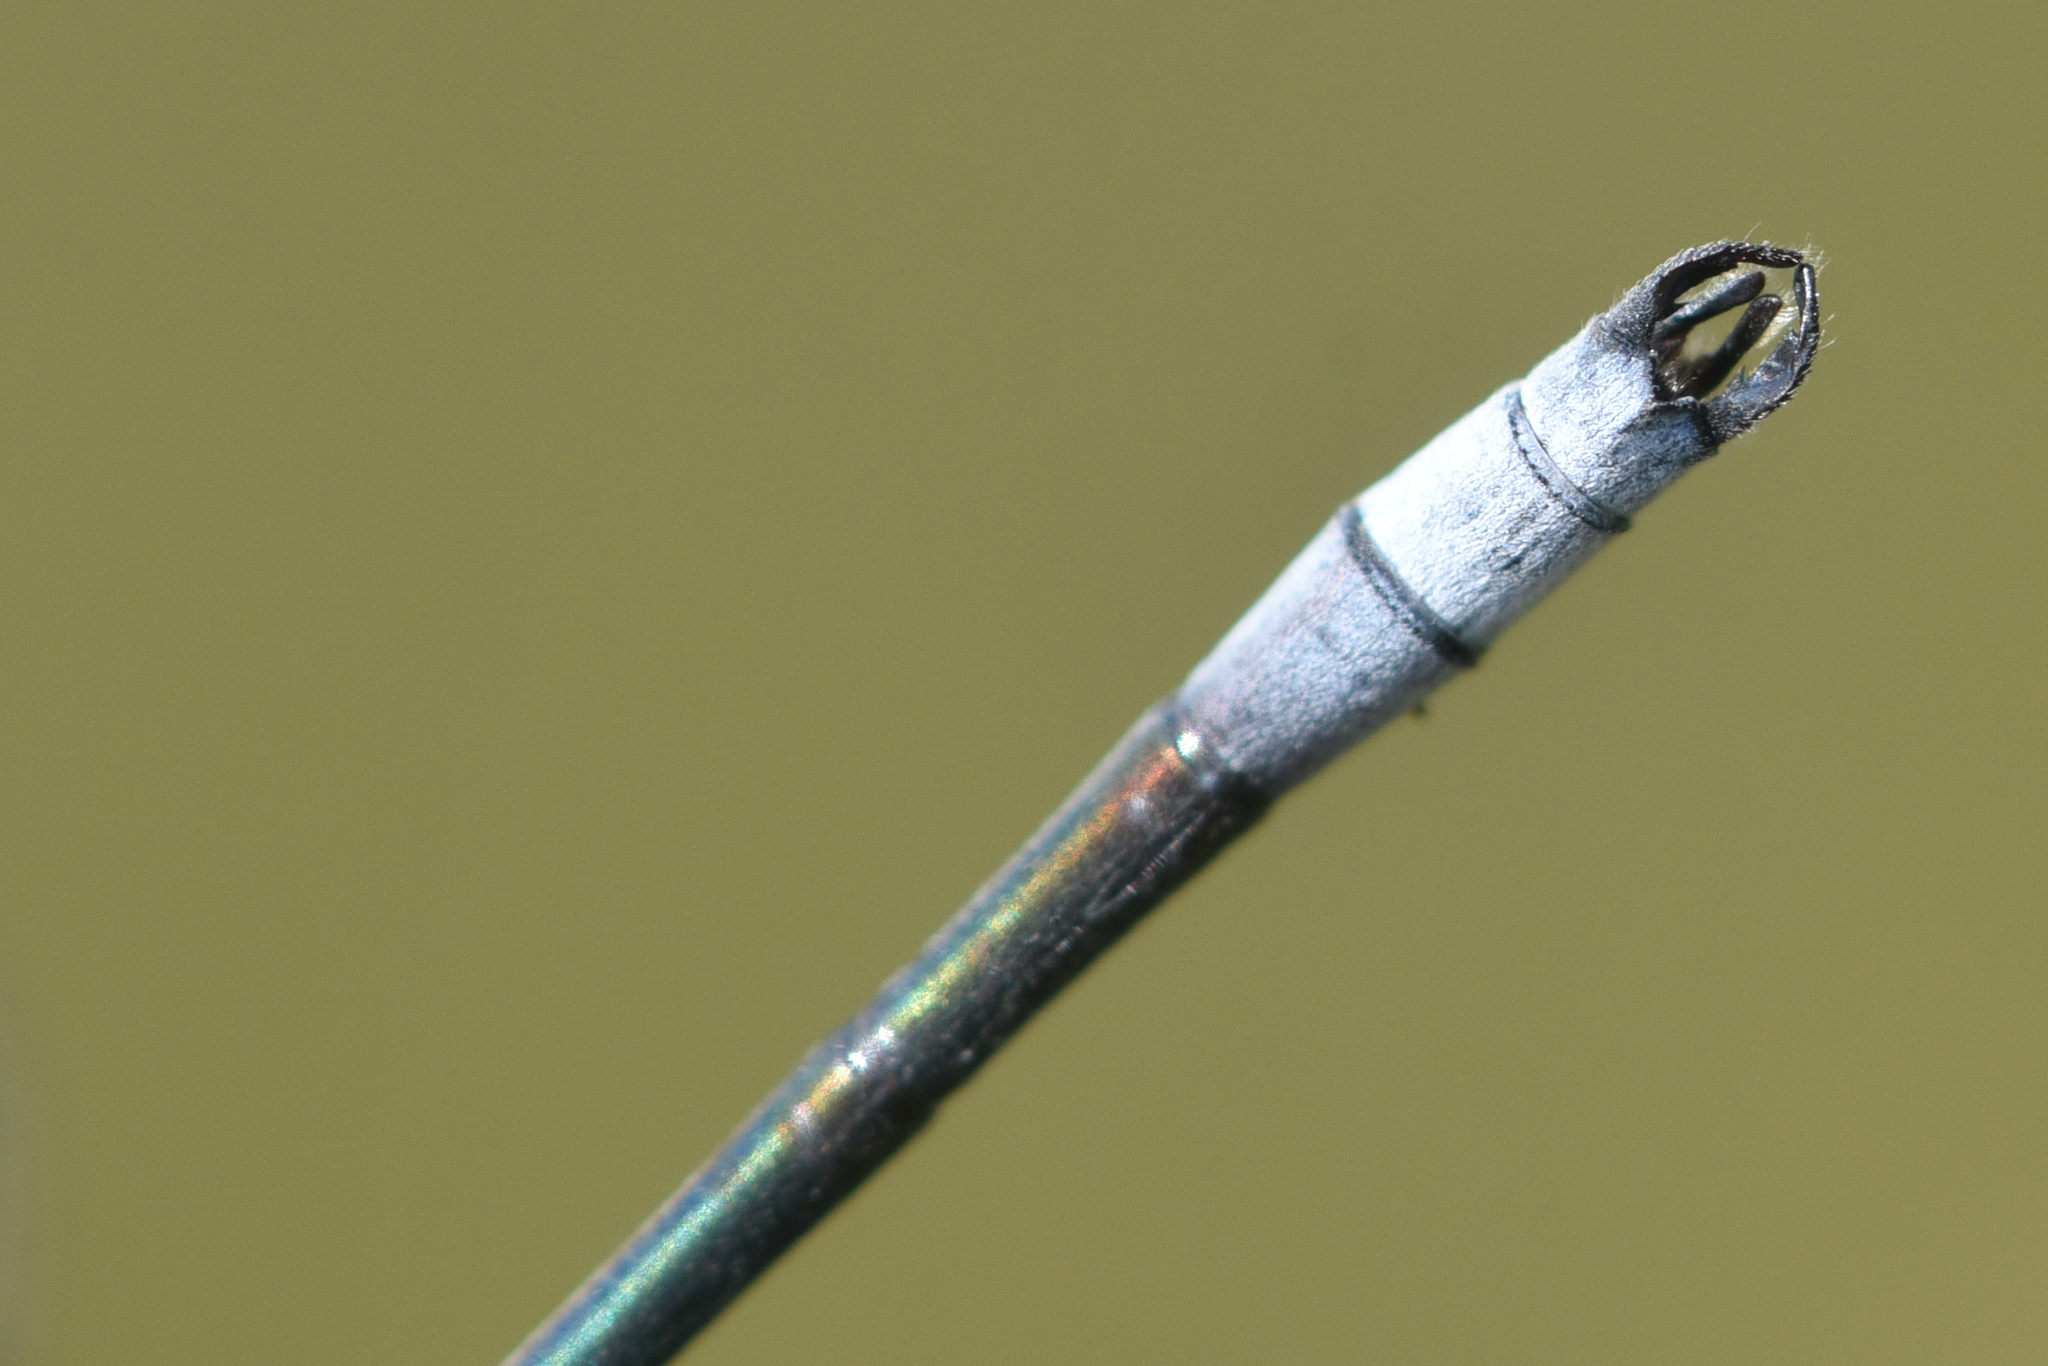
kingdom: Animalia
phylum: Arthropoda
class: Insecta
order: Odonata
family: Lestidae
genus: Lestes
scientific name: Lestes disjunctus
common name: Northern spreadwing
